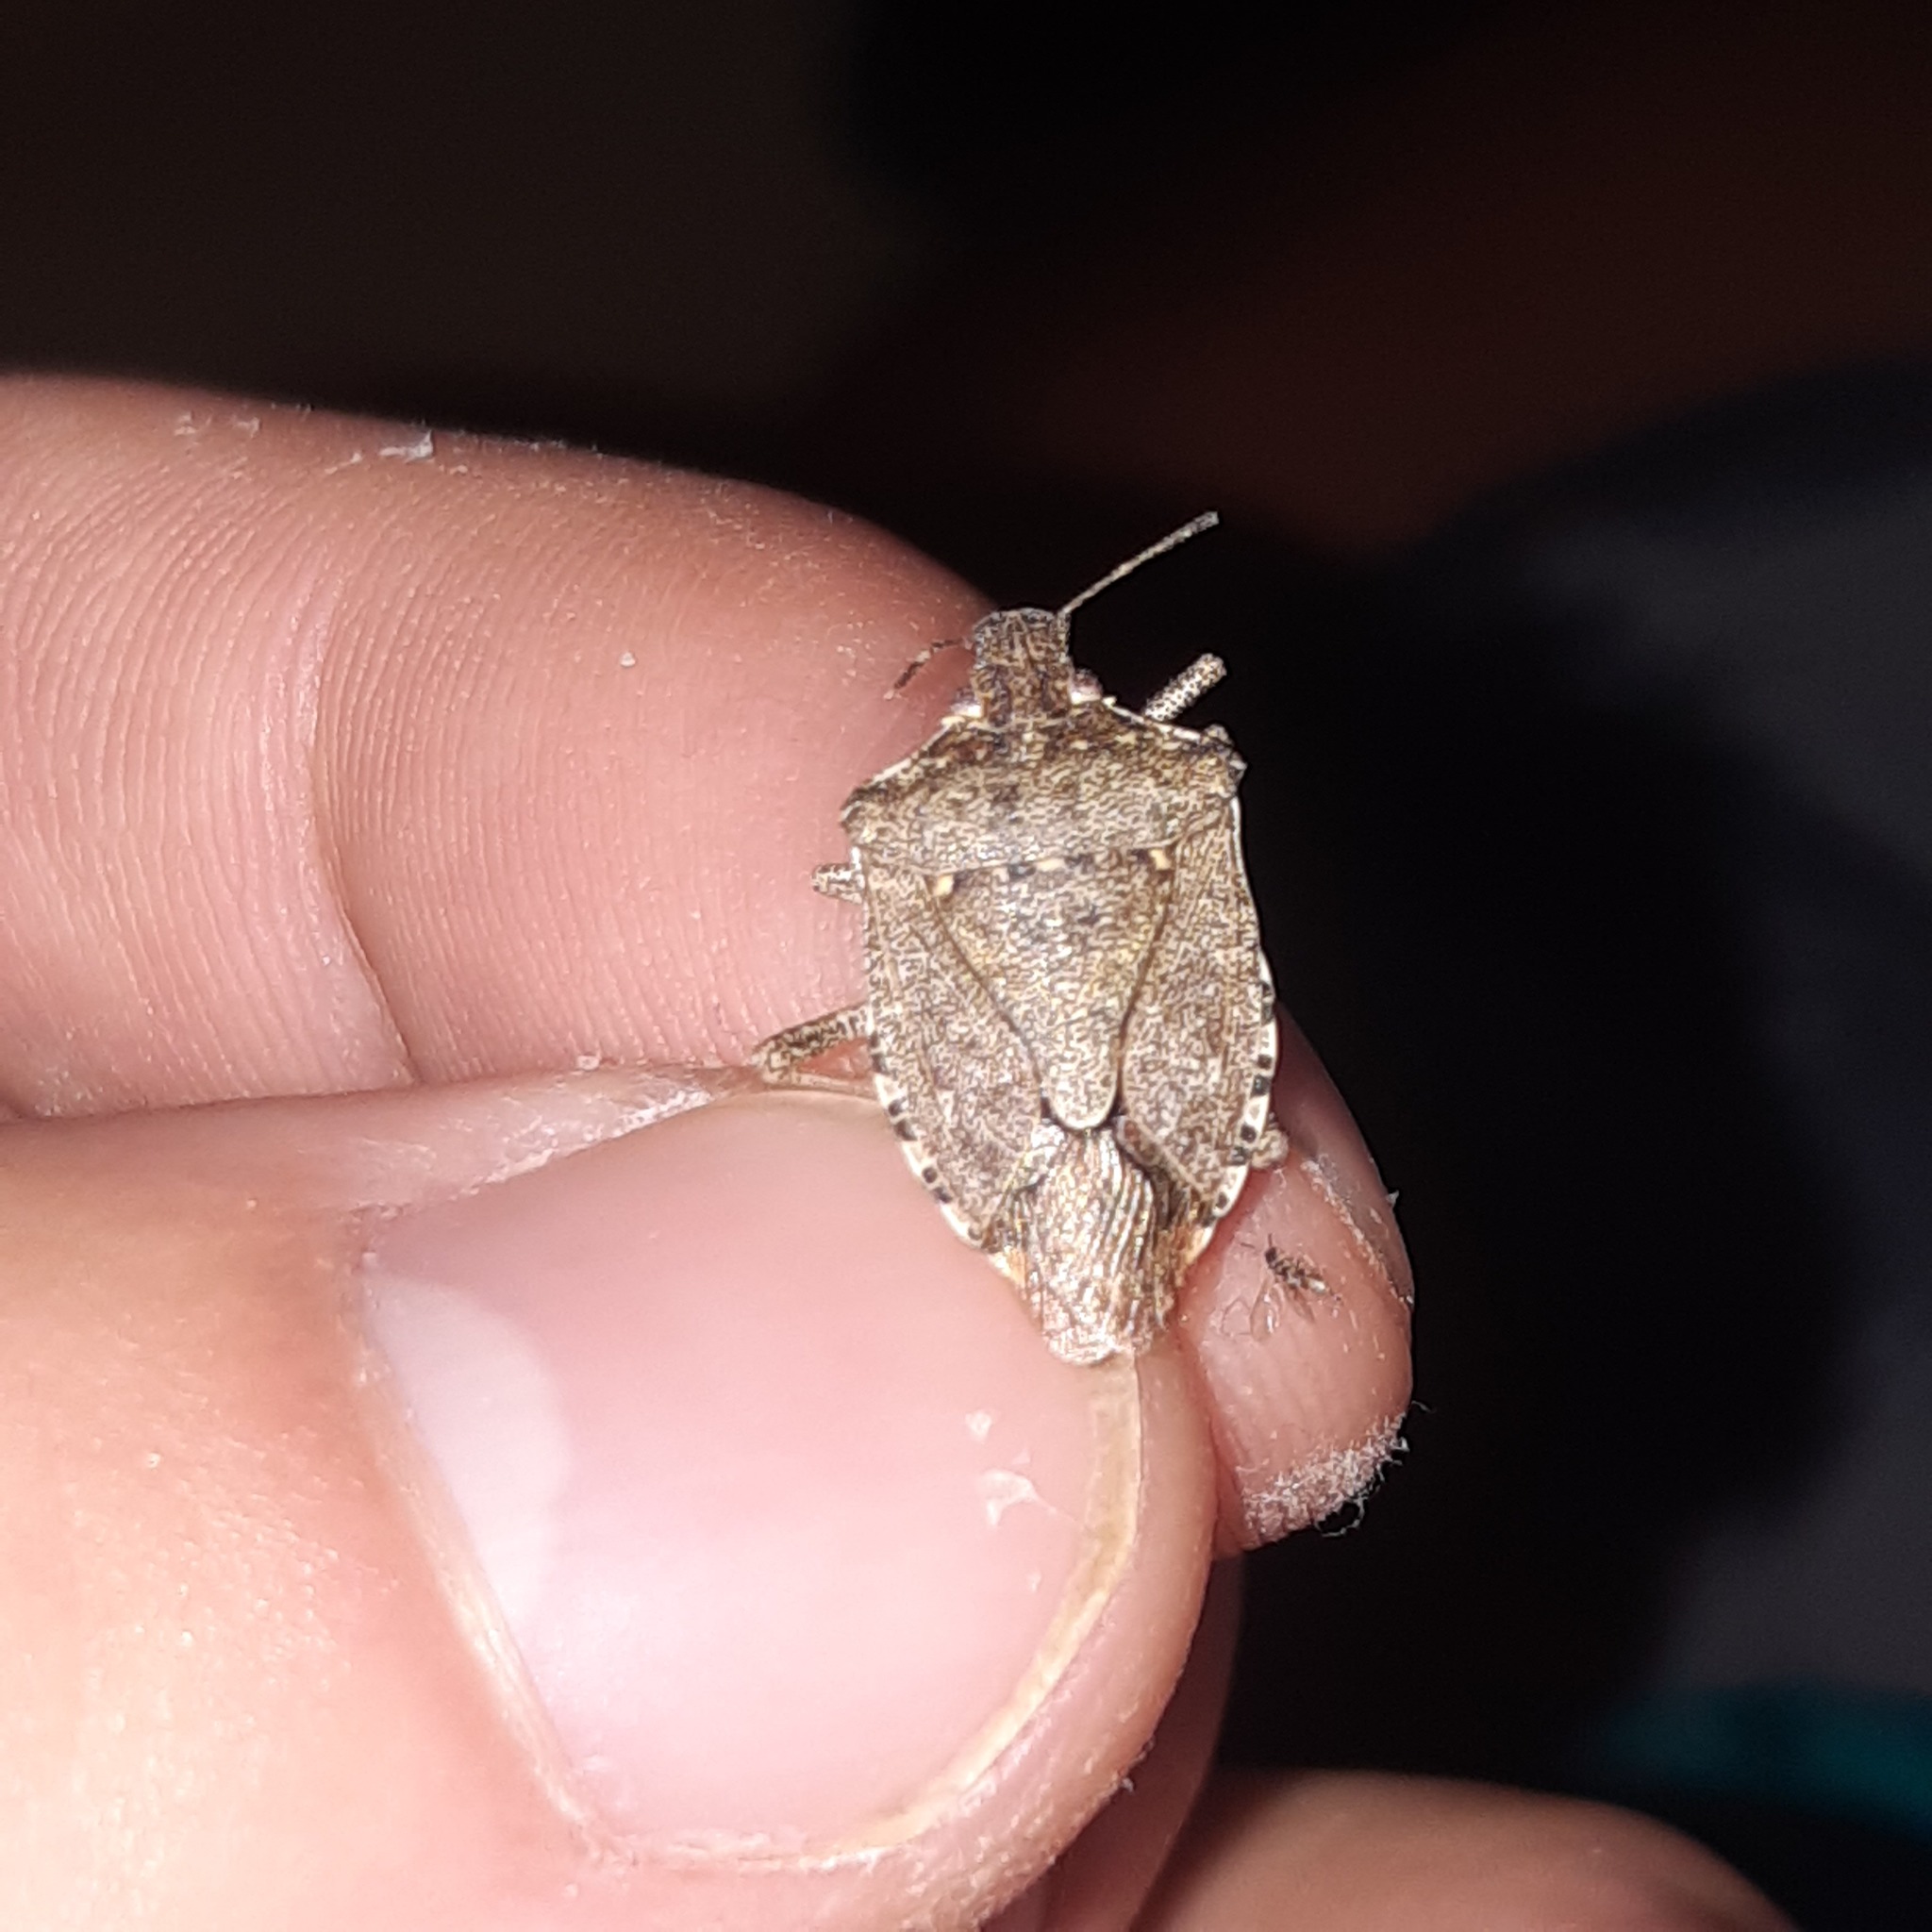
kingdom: Animalia
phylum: Arthropoda
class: Insecta
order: Hemiptera
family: Pentatomidae
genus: Halyomorpha
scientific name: Halyomorpha halys
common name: Brown marmorated stink bug
